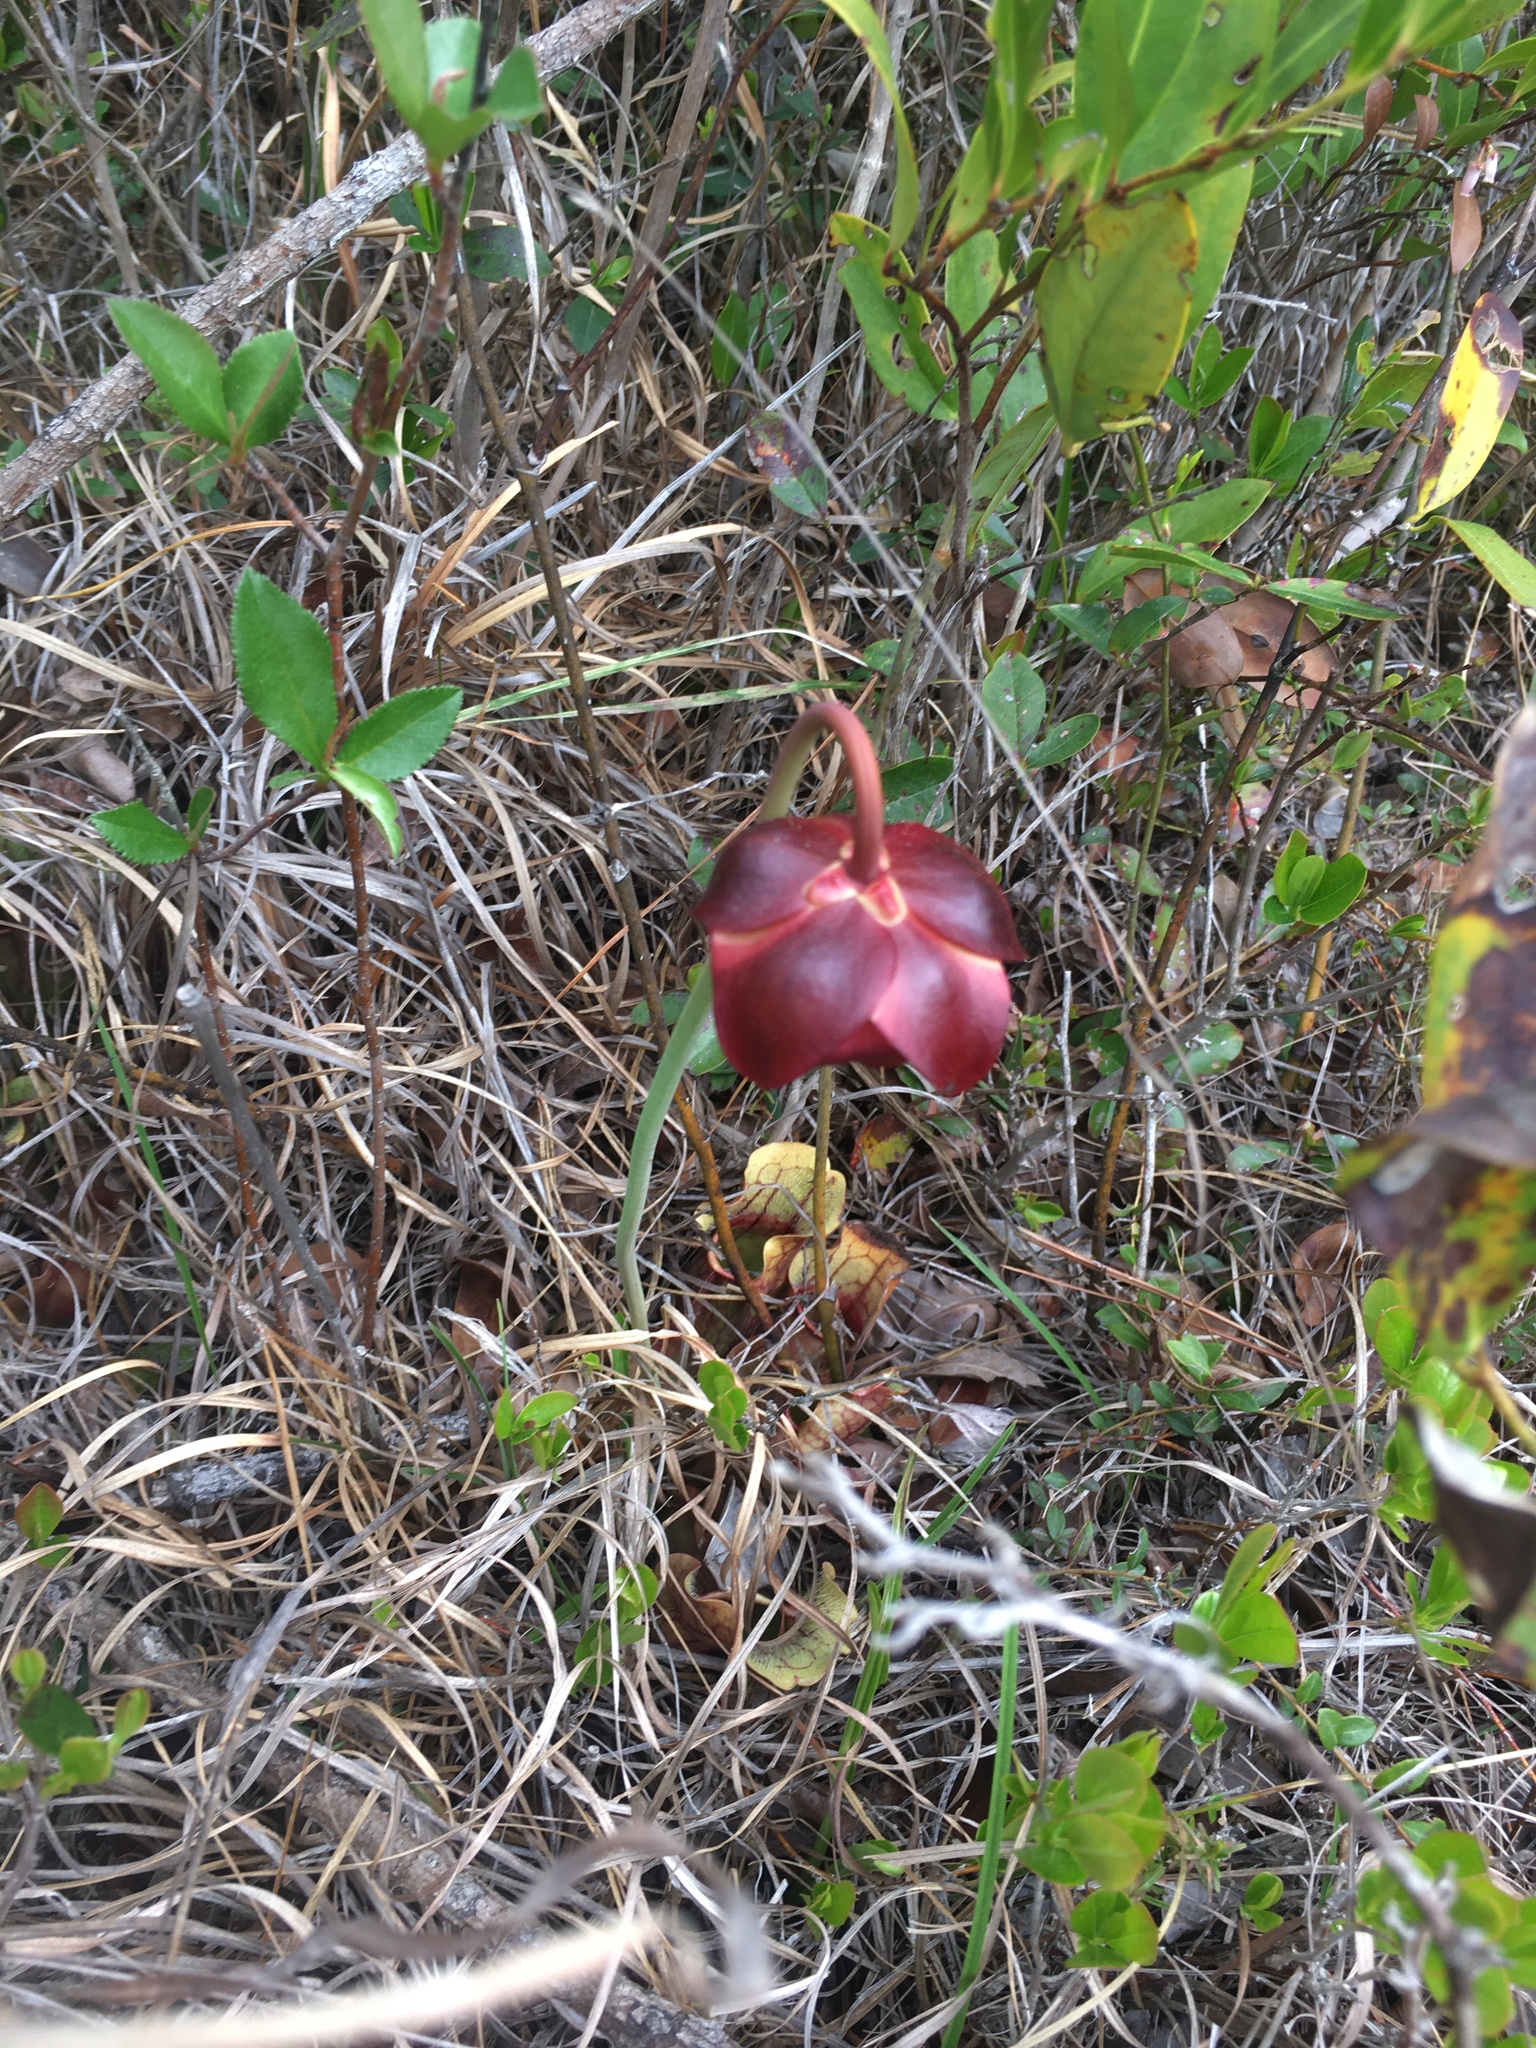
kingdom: Plantae
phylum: Tracheophyta
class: Magnoliopsida
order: Ericales
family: Sarraceniaceae
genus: Sarracenia
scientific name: Sarracenia purpurea
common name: Pitcherplant
